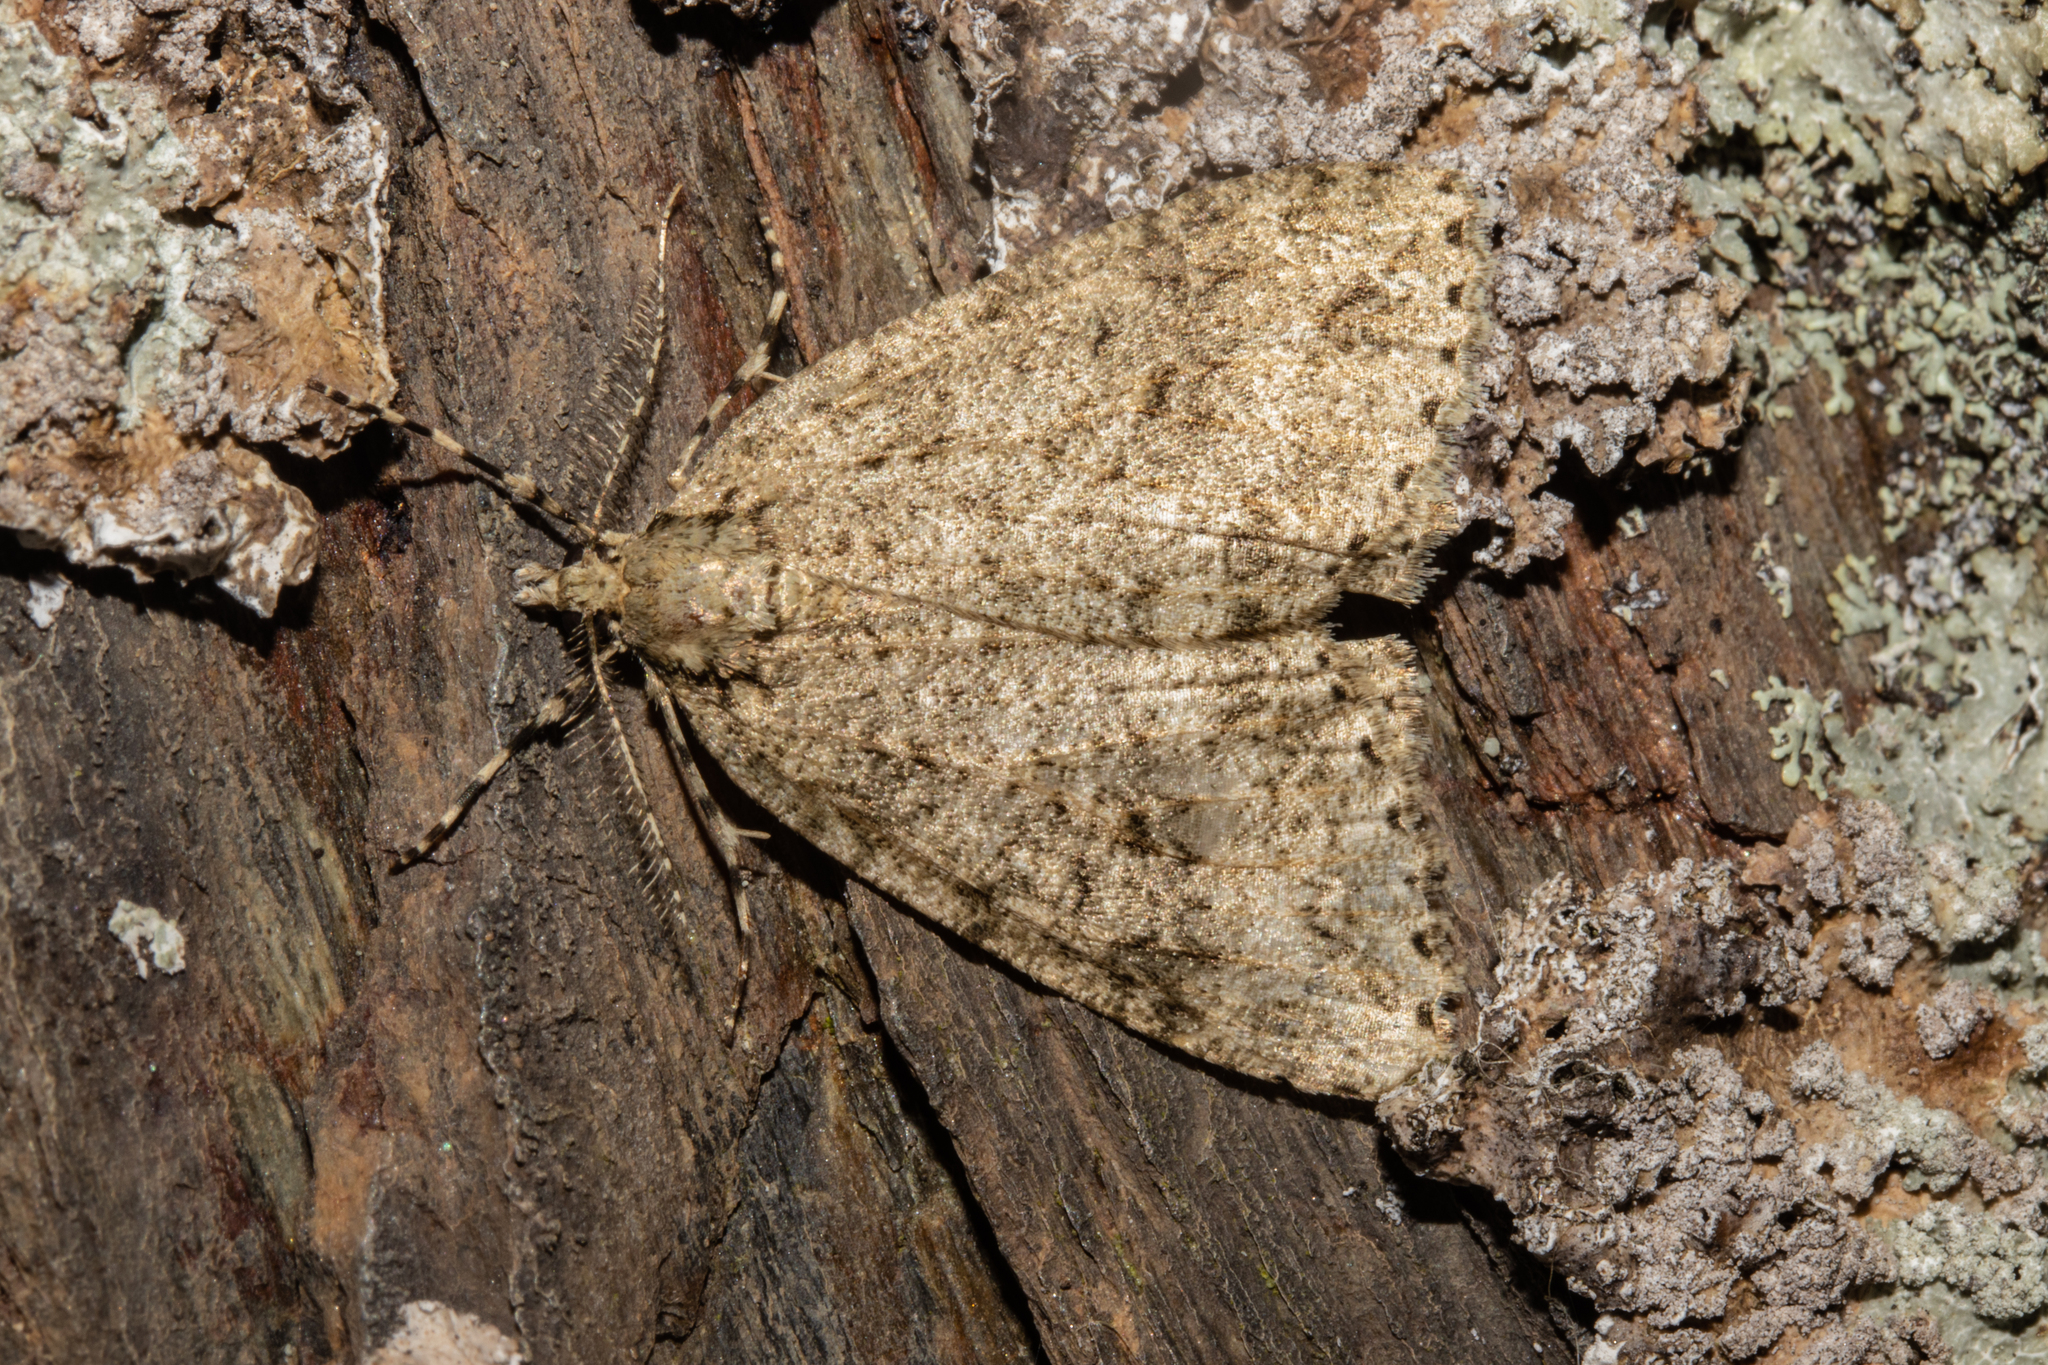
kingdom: Animalia
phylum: Arthropoda
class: Insecta
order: Lepidoptera
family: Geometridae
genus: Pseudocoremia
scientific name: Pseudocoremia rudisata
